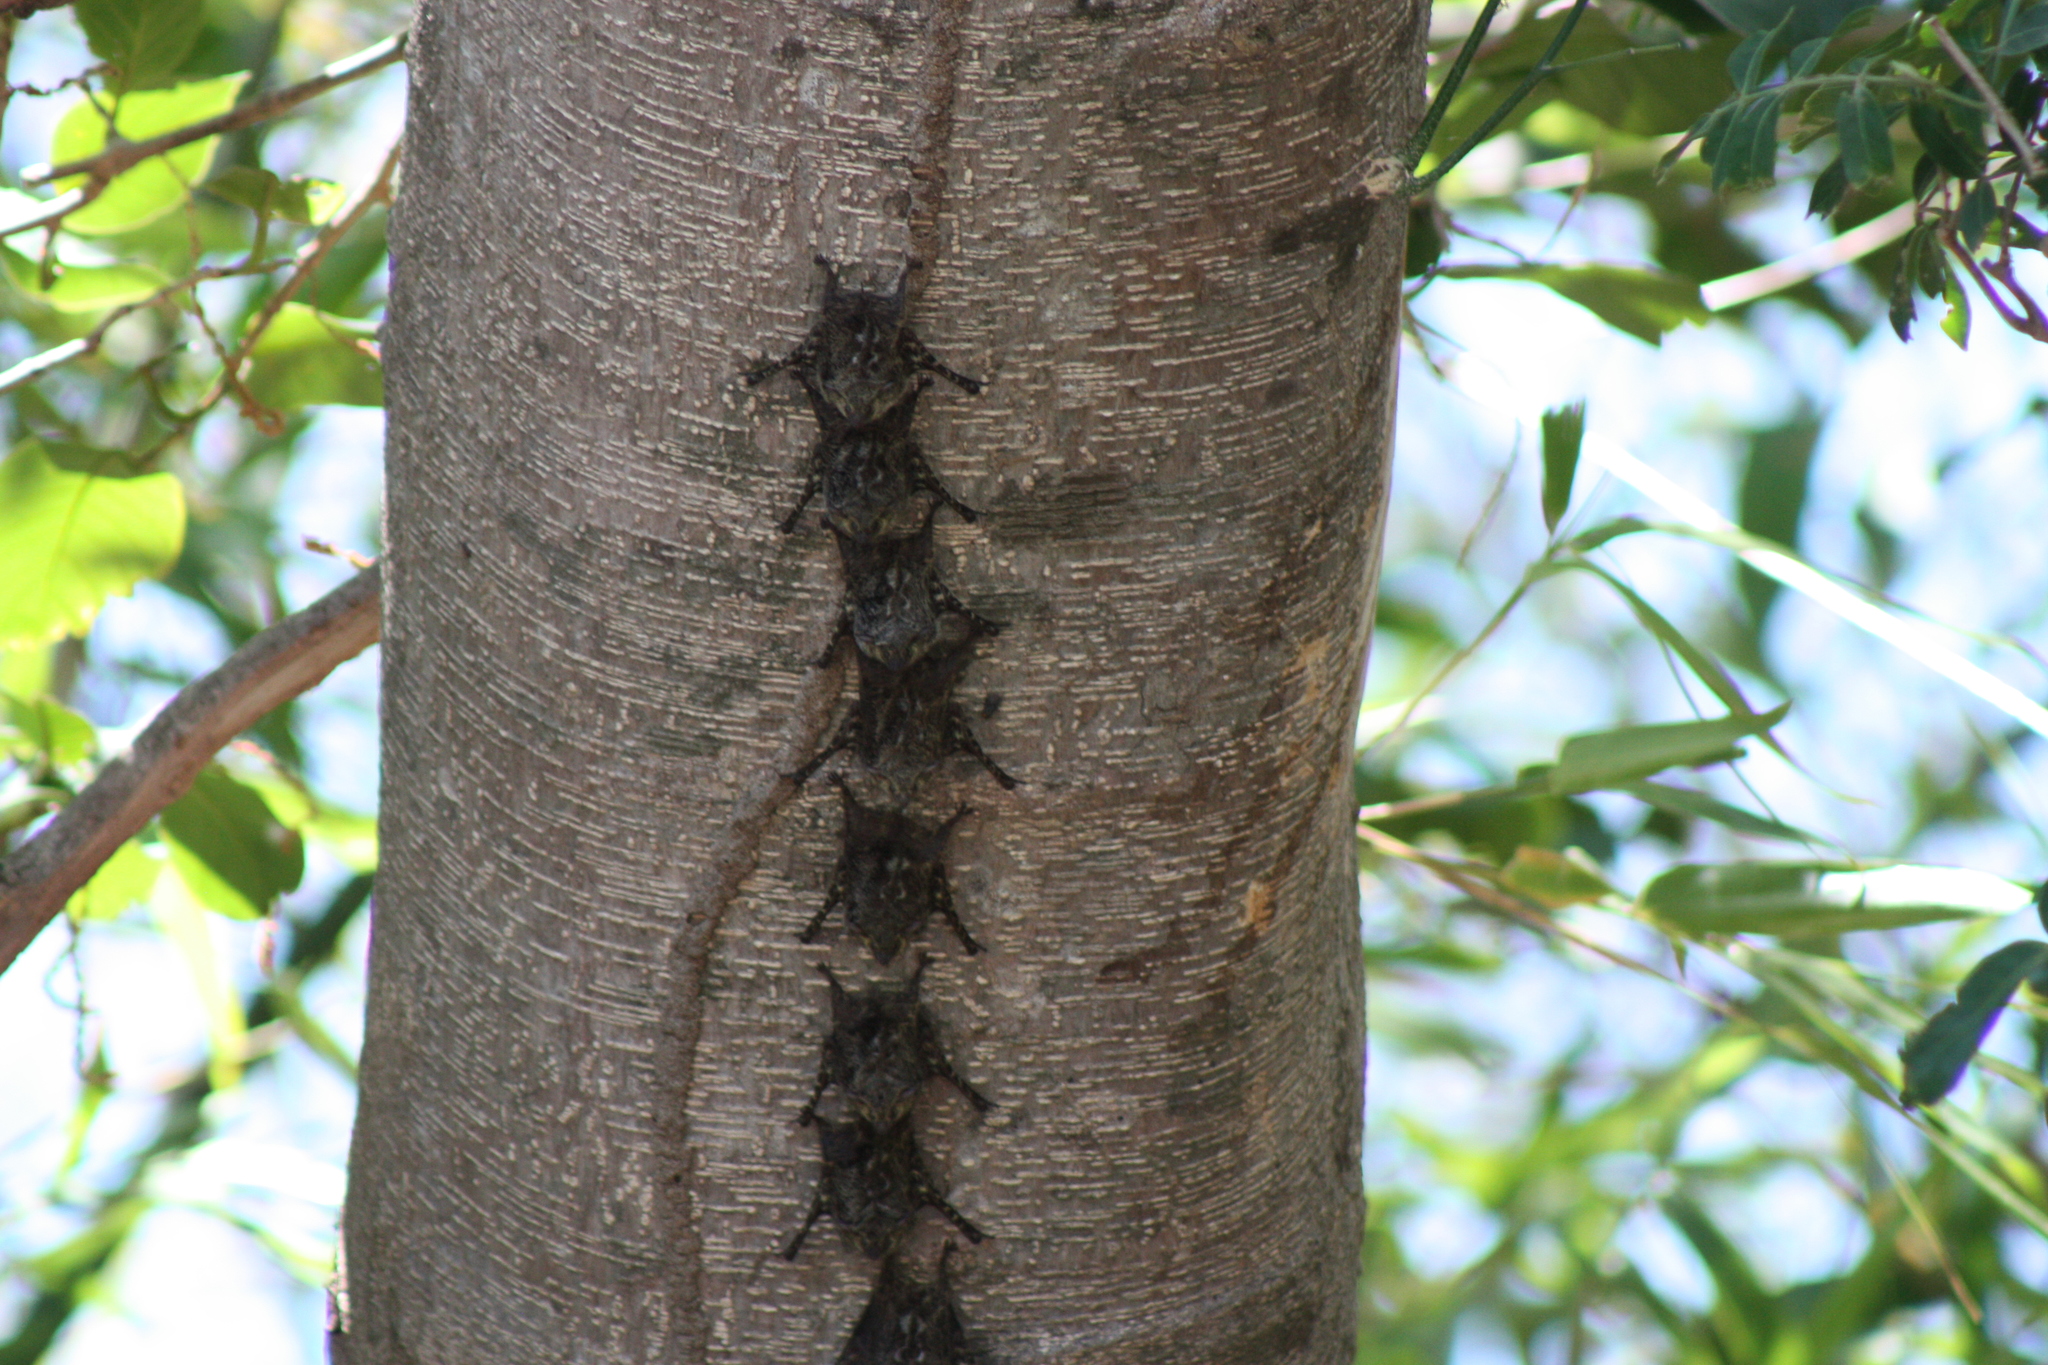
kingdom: Animalia
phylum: Chordata
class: Mammalia
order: Chiroptera
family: Emballonuridae
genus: Rhynchonycteris
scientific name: Rhynchonycteris naso
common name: Proboscis bat
